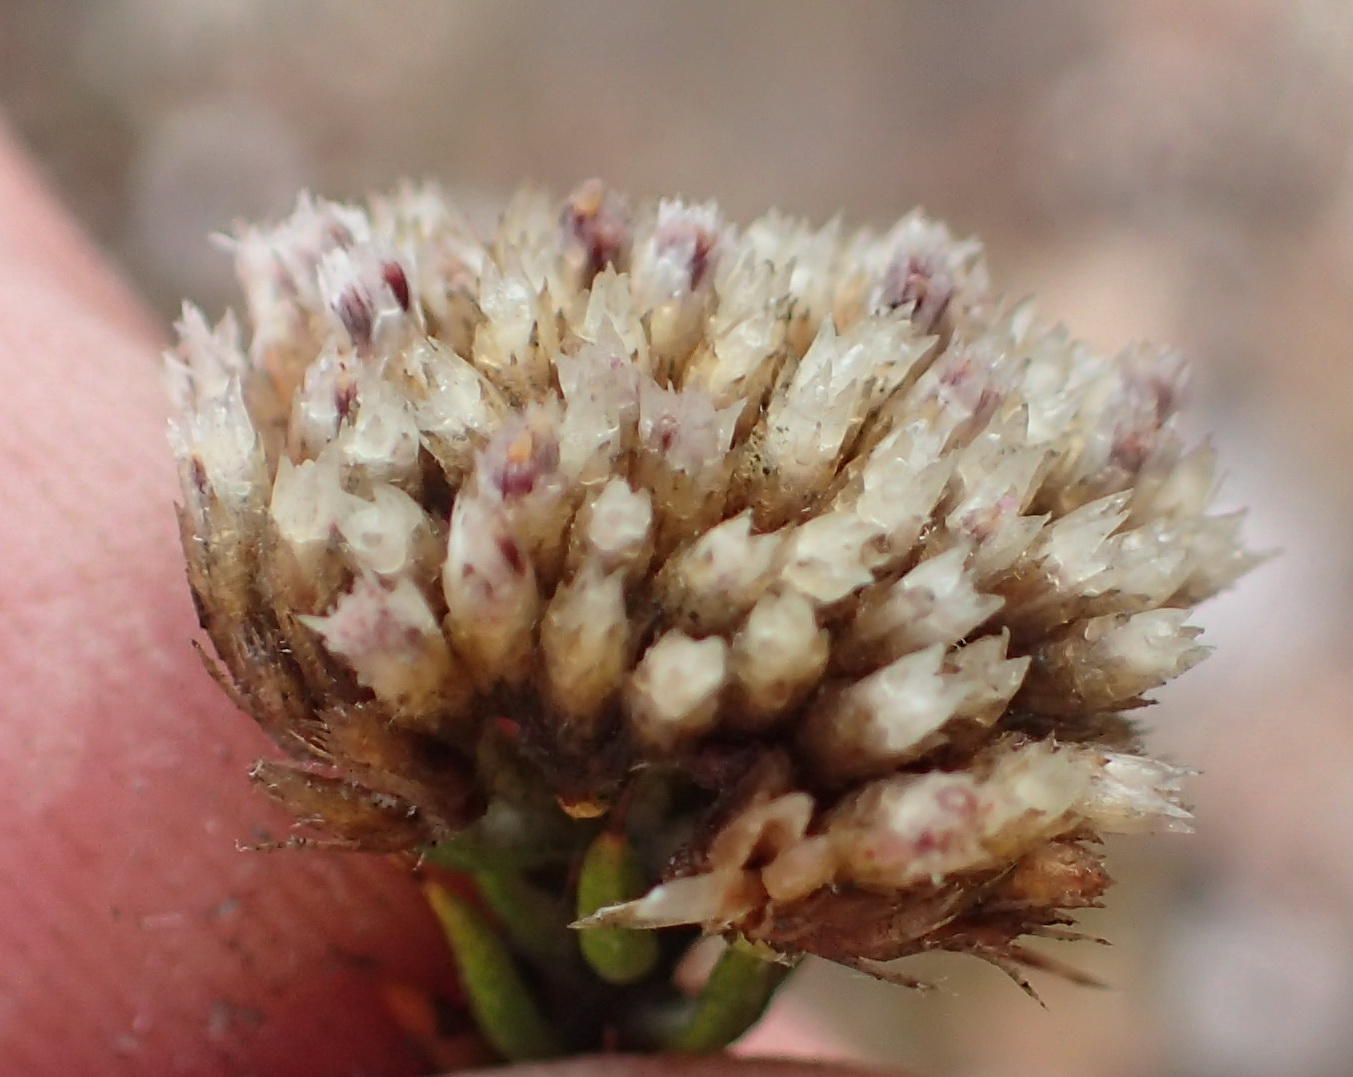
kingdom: Plantae
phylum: Tracheophyta
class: Magnoliopsida
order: Asterales
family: Asteraceae
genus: Metalasia
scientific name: Metalasia pulcherrima
